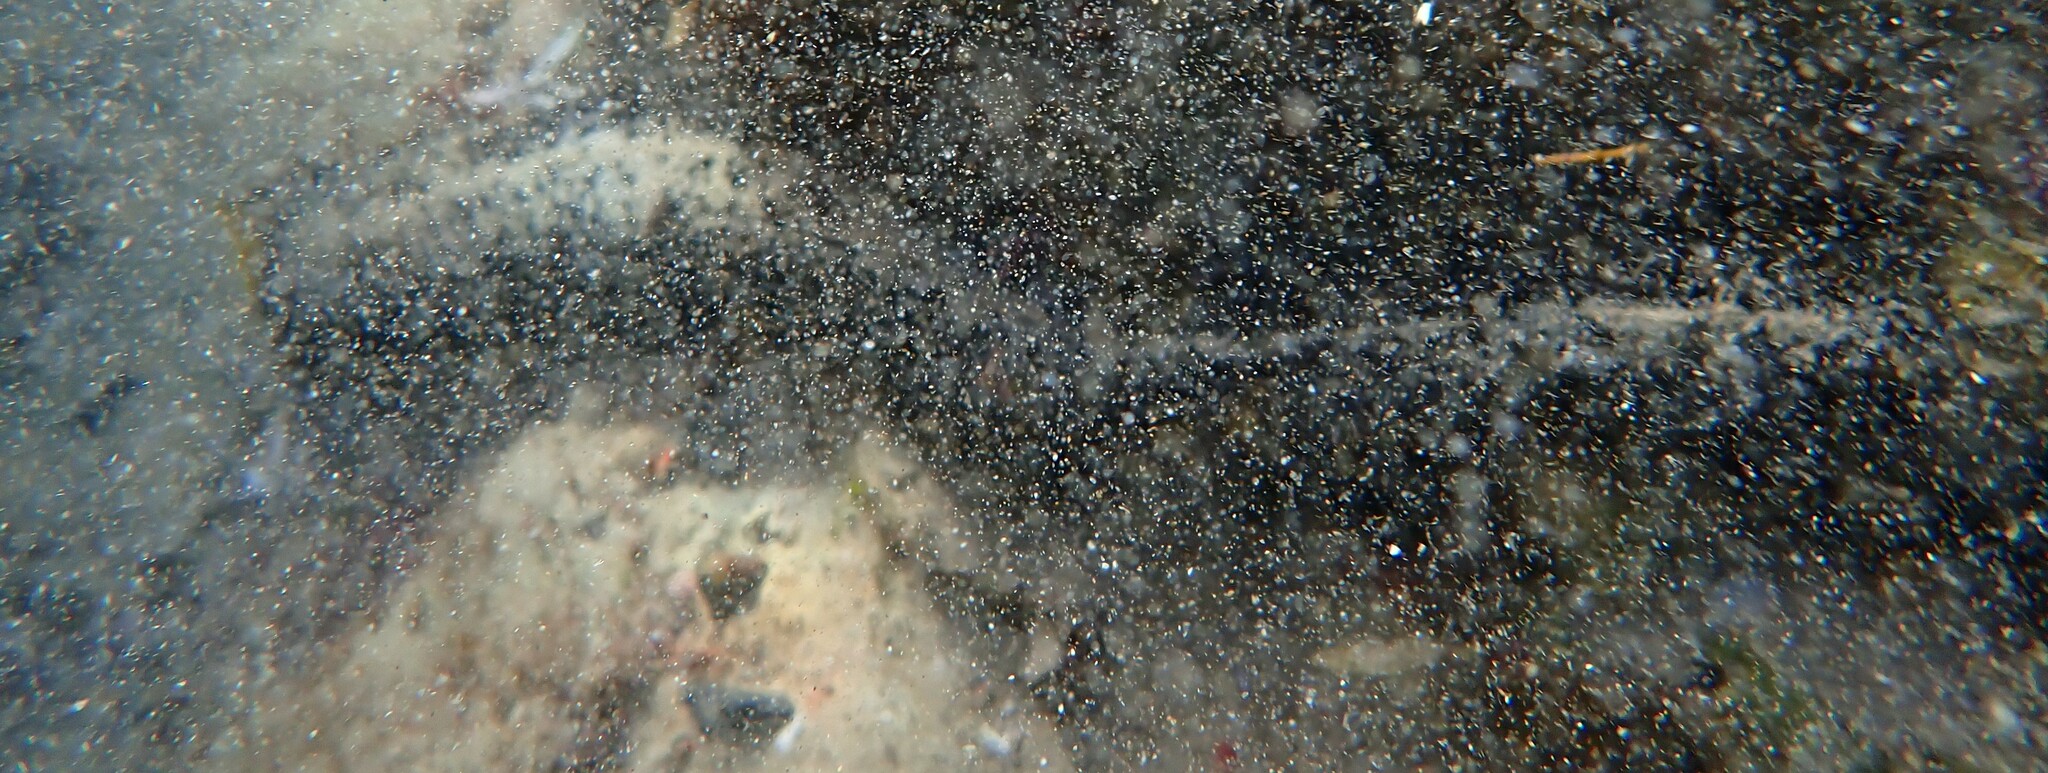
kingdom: Animalia
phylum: Echinodermata
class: Holothuroidea
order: Holothuriida
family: Holothuriidae
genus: Holothuria
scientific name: Holothuria leucospilota
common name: White thread fish
